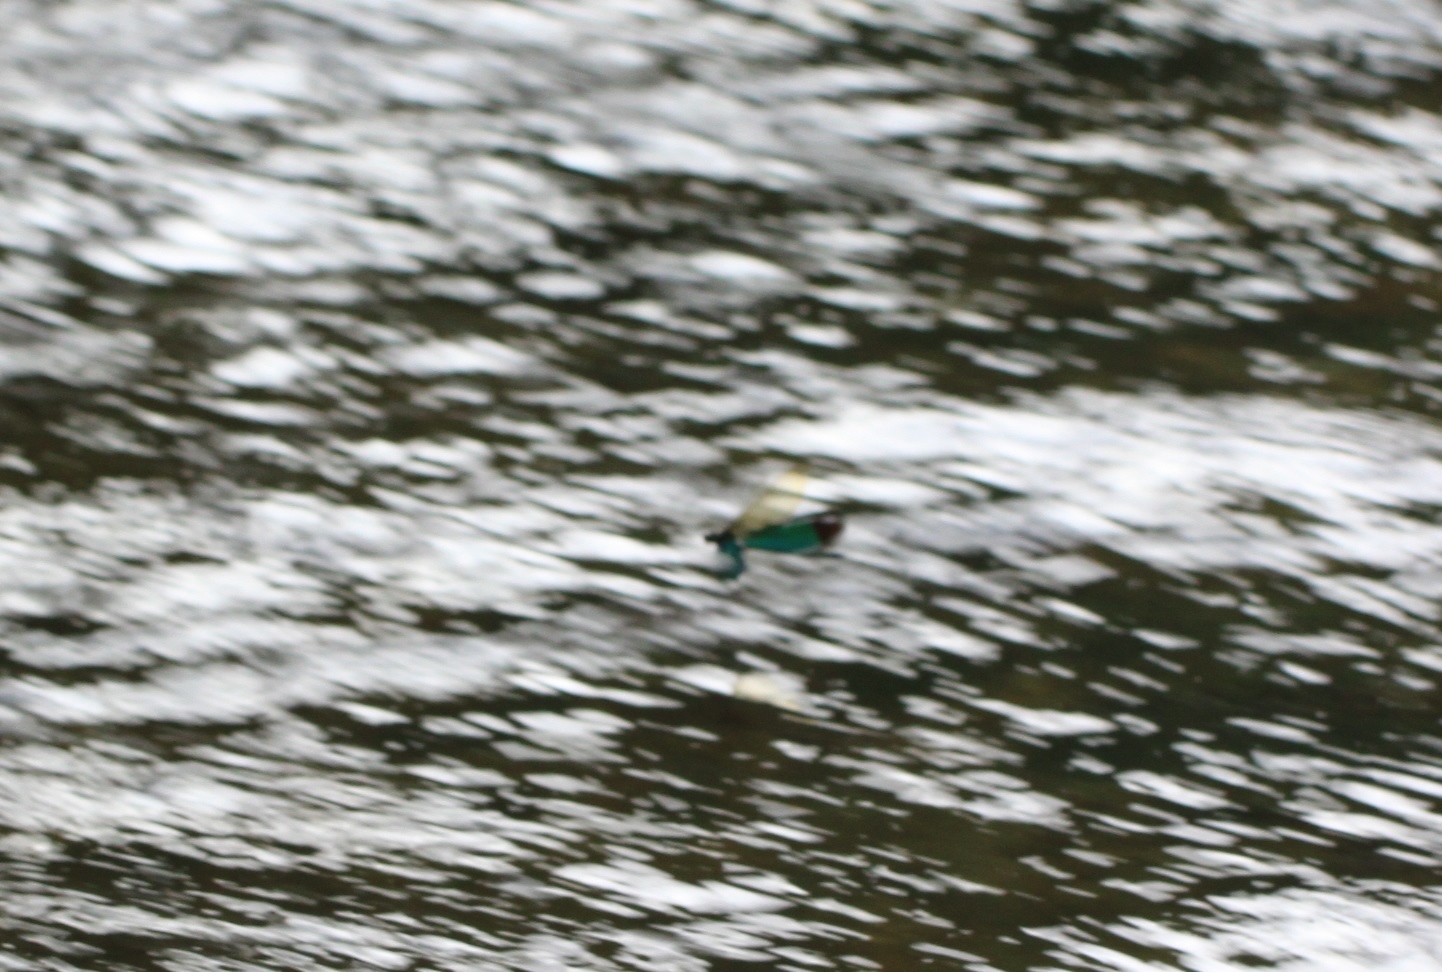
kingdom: Animalia
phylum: Arthropoda
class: Insecta
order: Odonata
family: Calopterygidae
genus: Neurobasis
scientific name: Neurobasis chinensis
